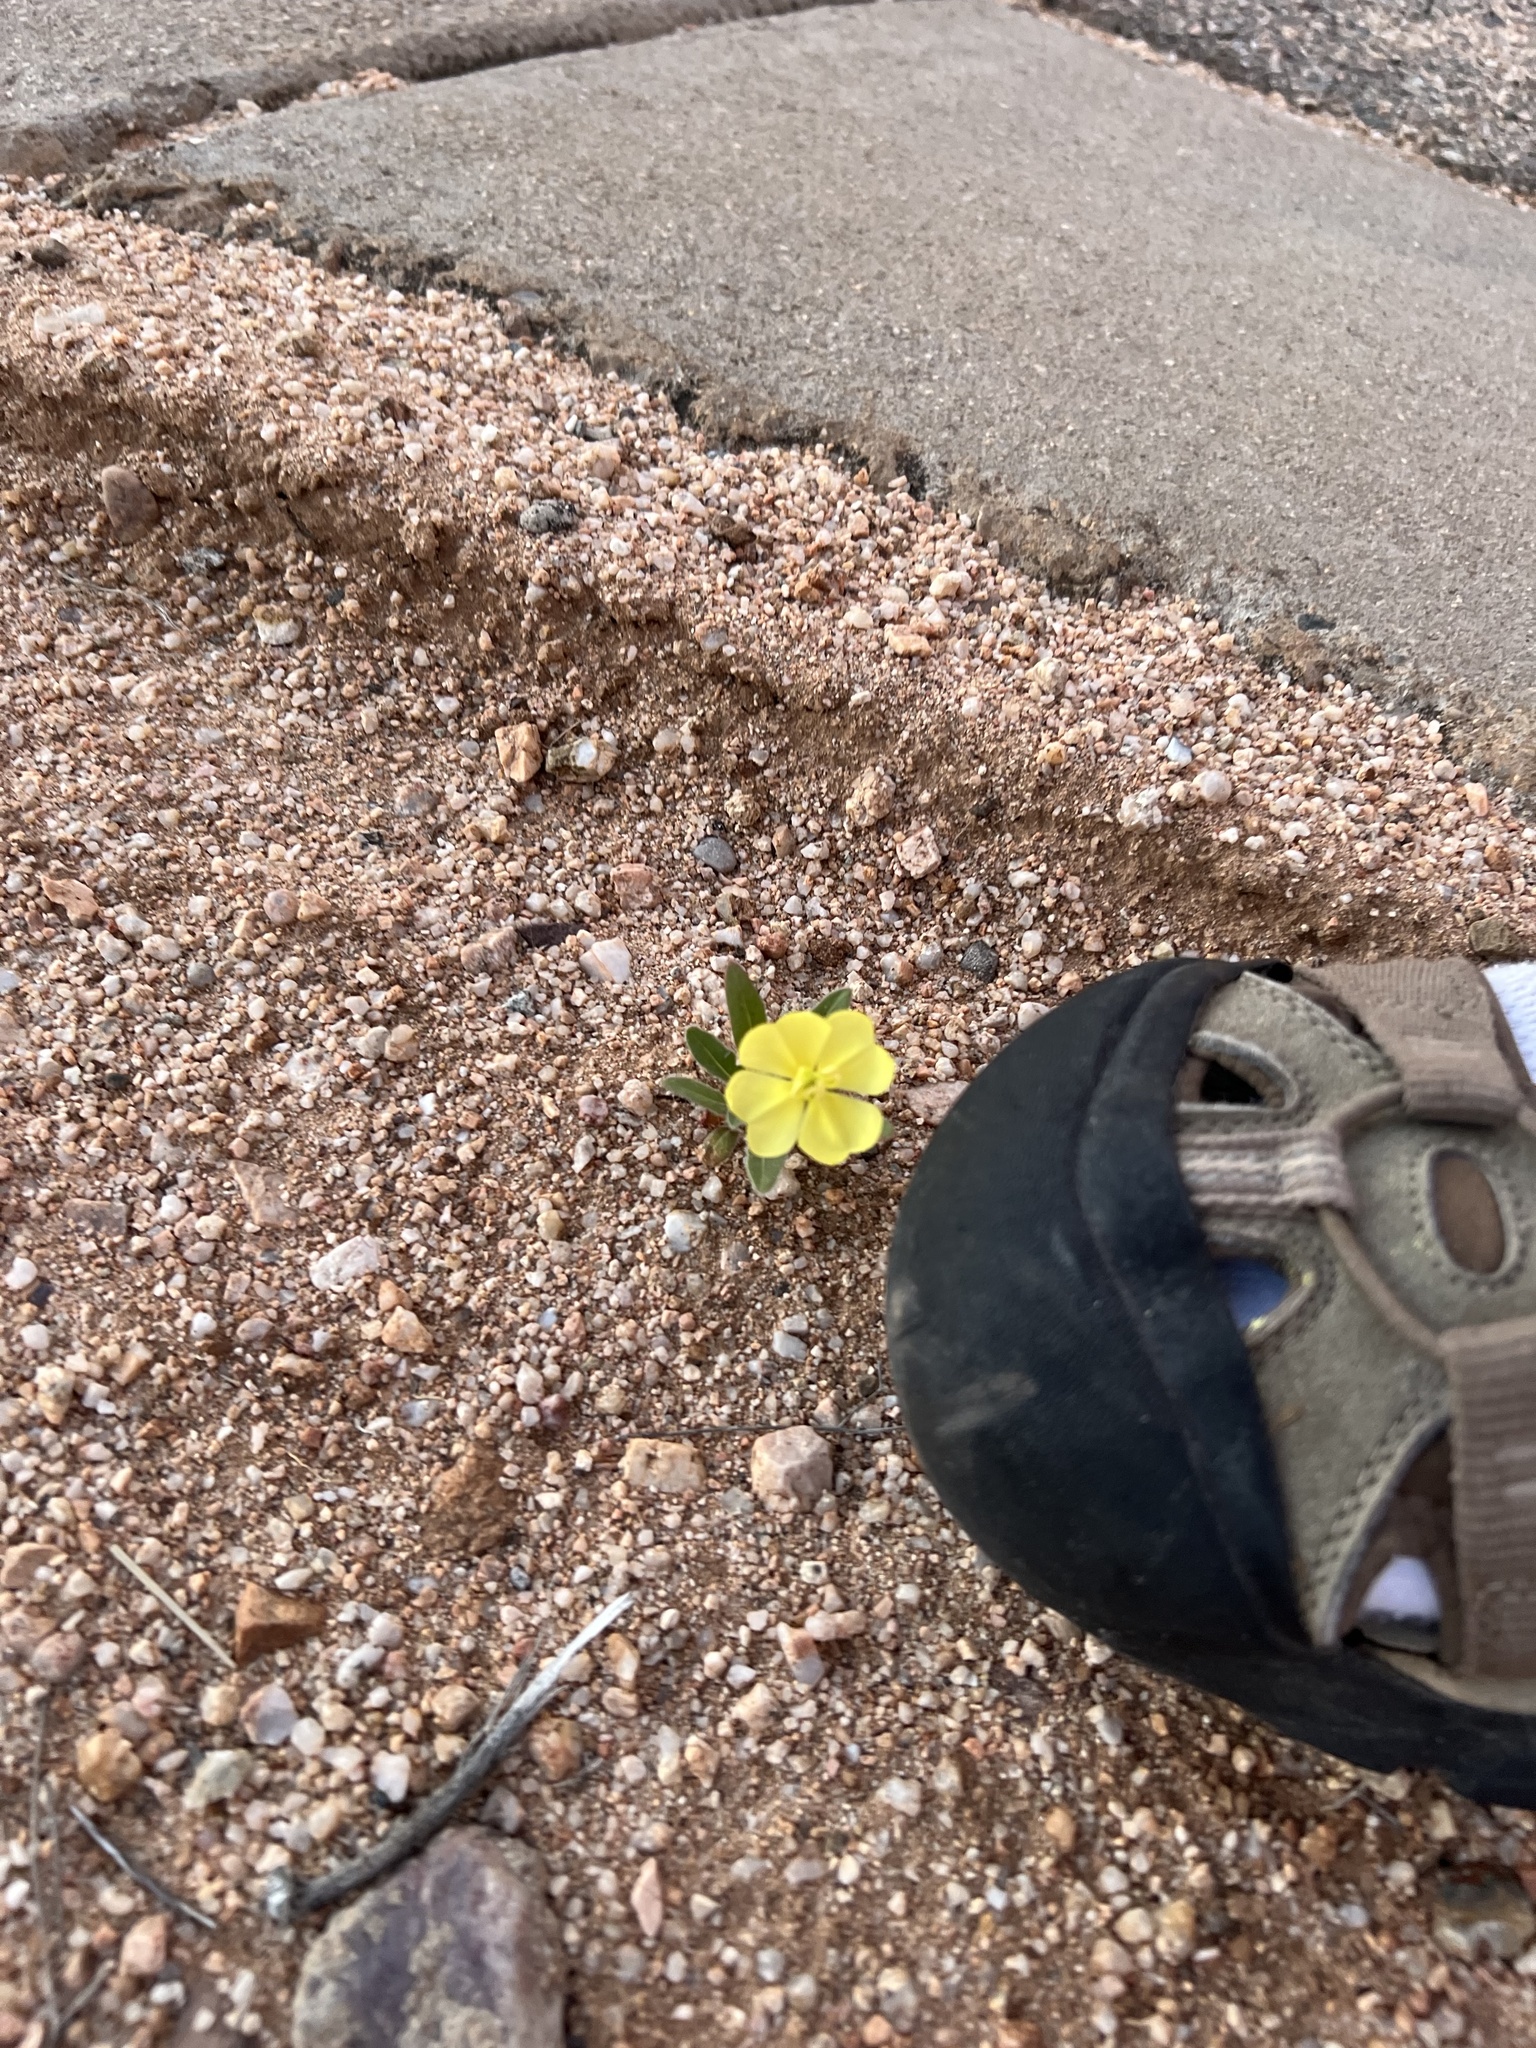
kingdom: Plantae
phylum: Tracheophyta
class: Magnoliopsida
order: Myrtales
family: Onagraceae
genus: Oenothera
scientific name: Oenothera primiveris
